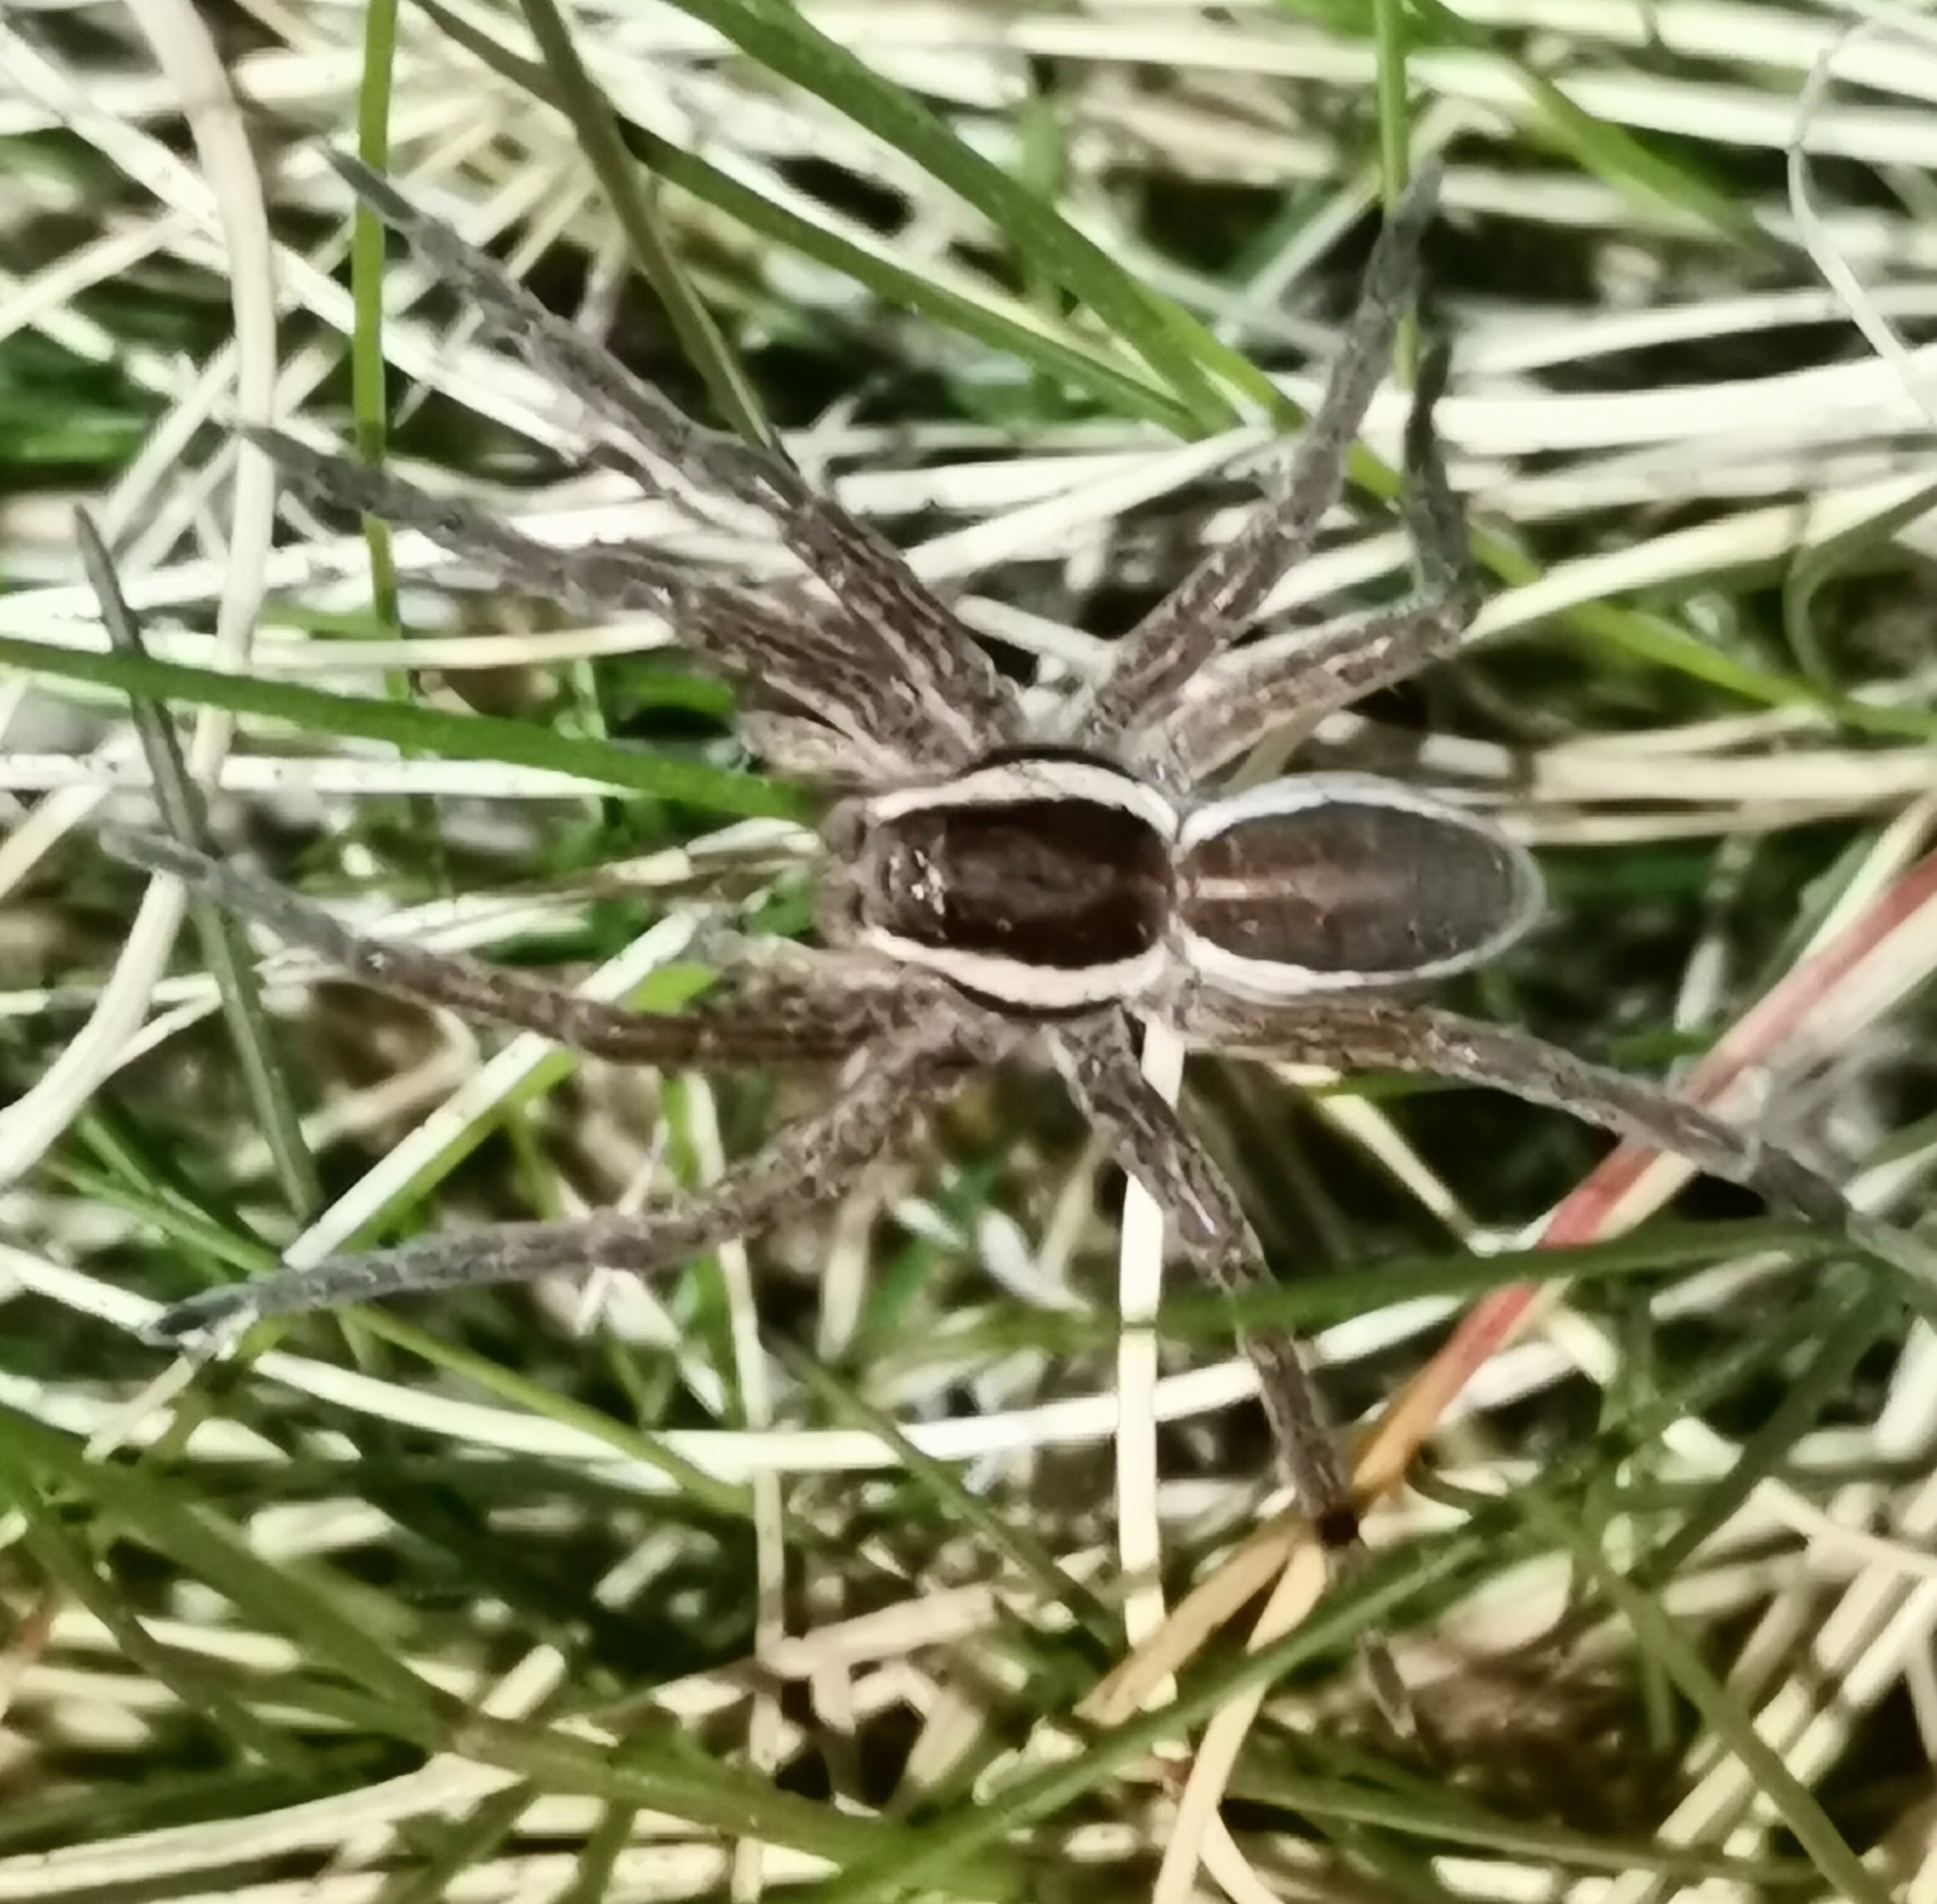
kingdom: Animalia
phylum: Arthropoda
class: Arachnida
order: Araneae
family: Pisauridae
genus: Dolomedes
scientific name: Dolomedes
